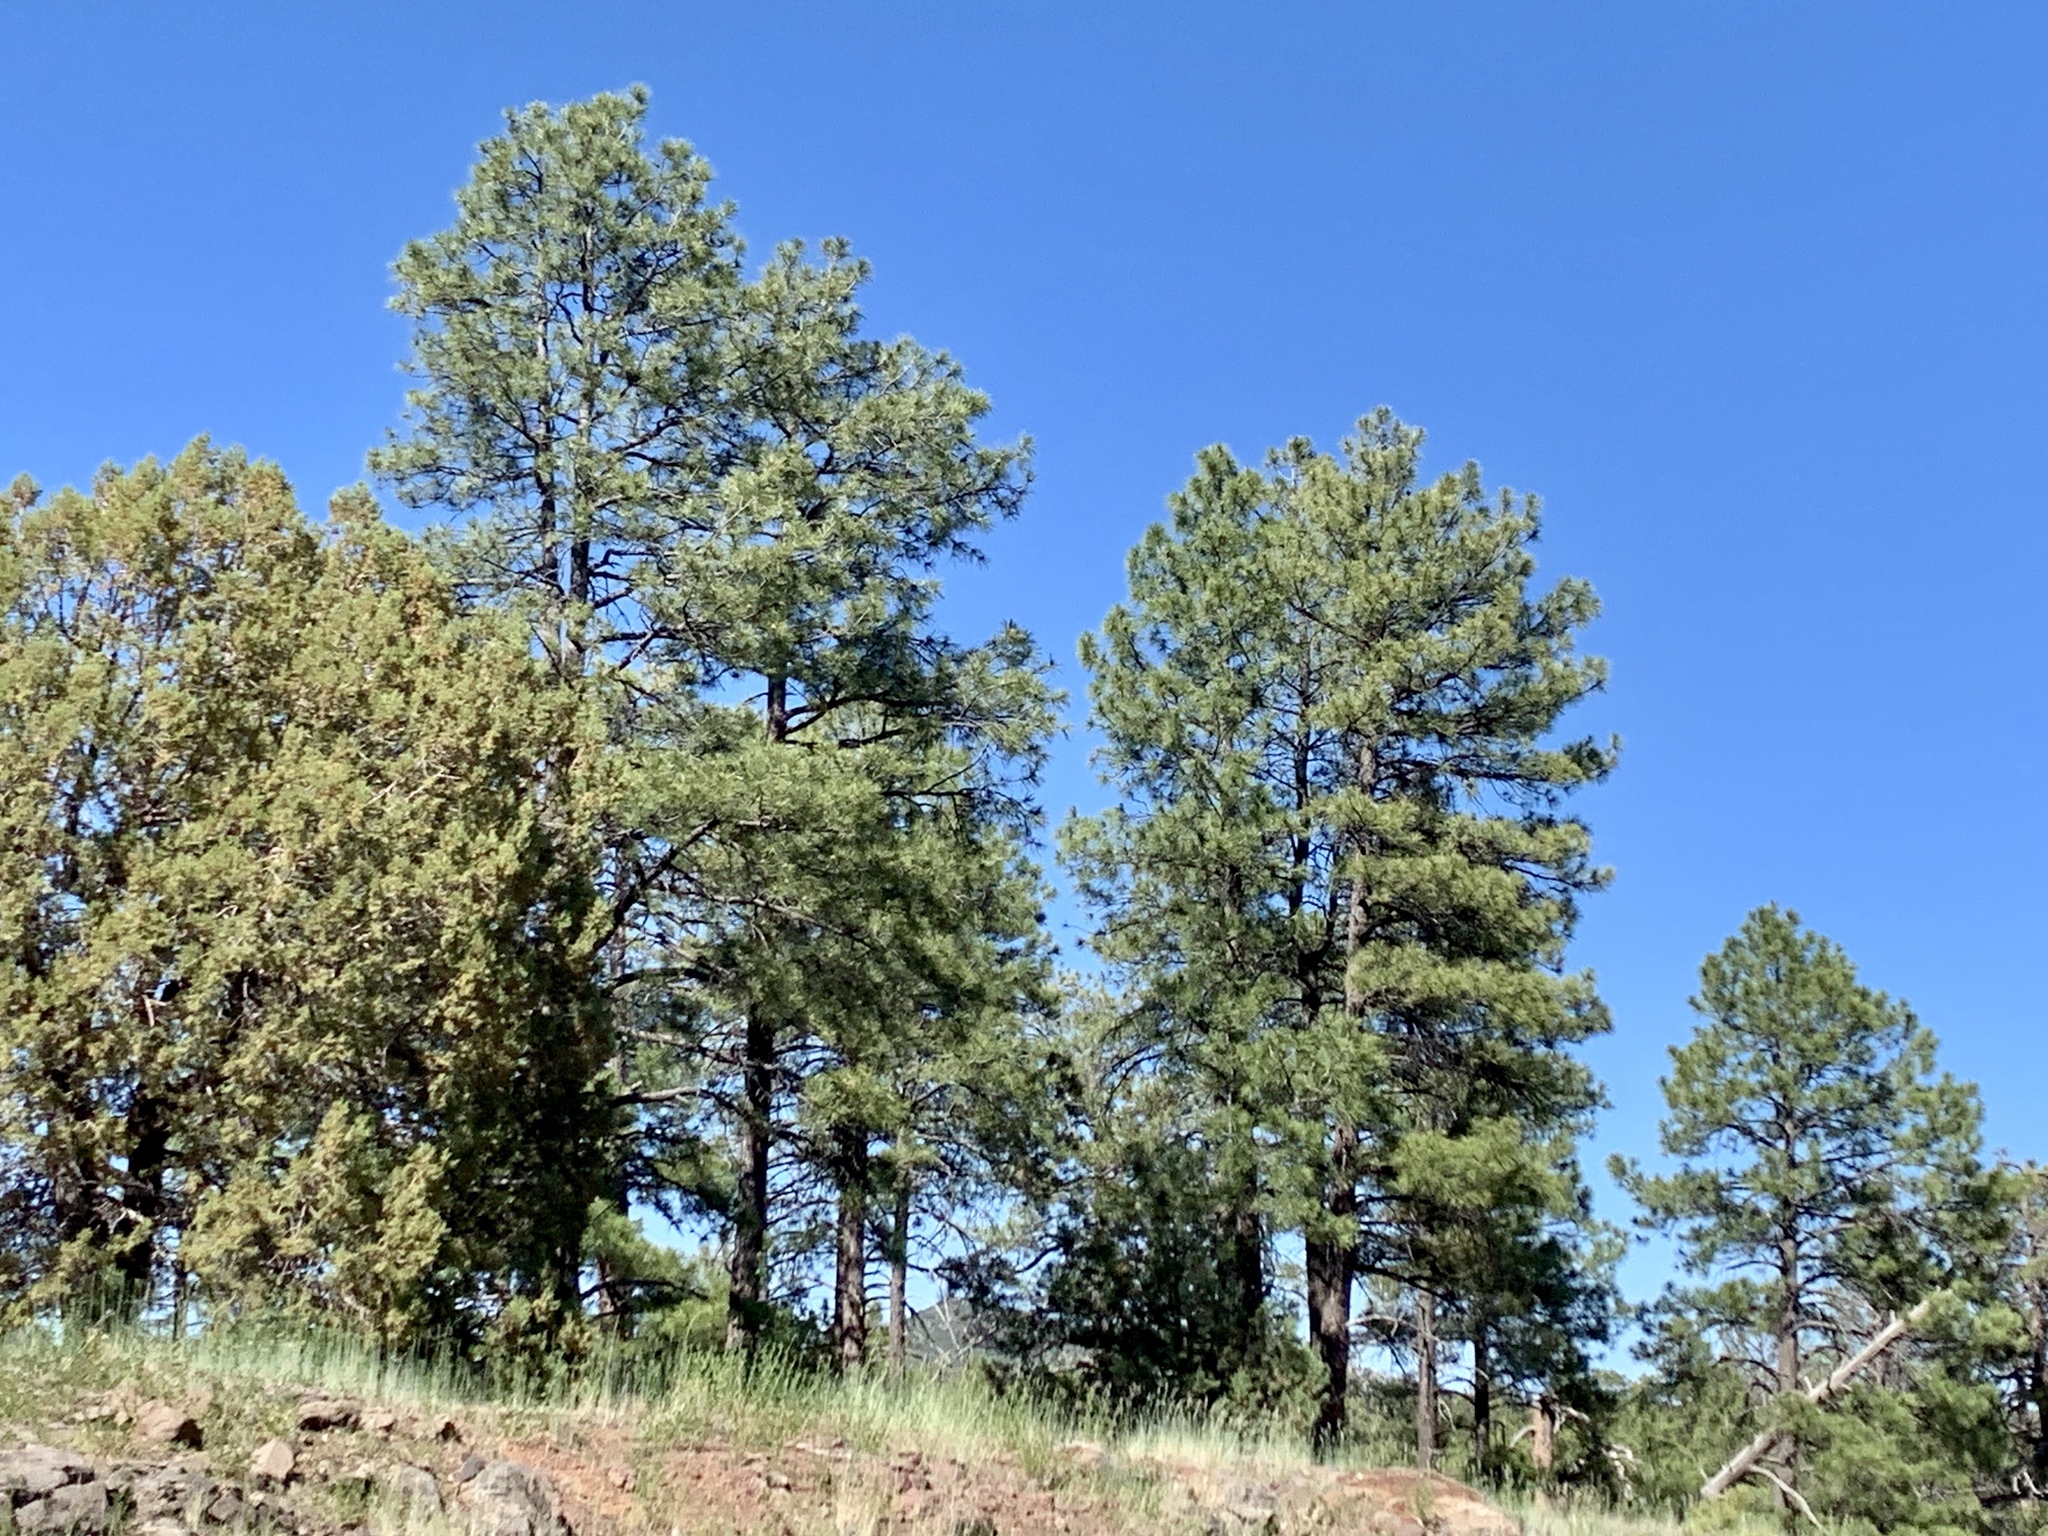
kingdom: Plantae
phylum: Tracheophyta
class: Pinopsida
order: Pinales
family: Pinaceae
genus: Pinus
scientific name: Pinus ponderosa
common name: Western yellow-pine
